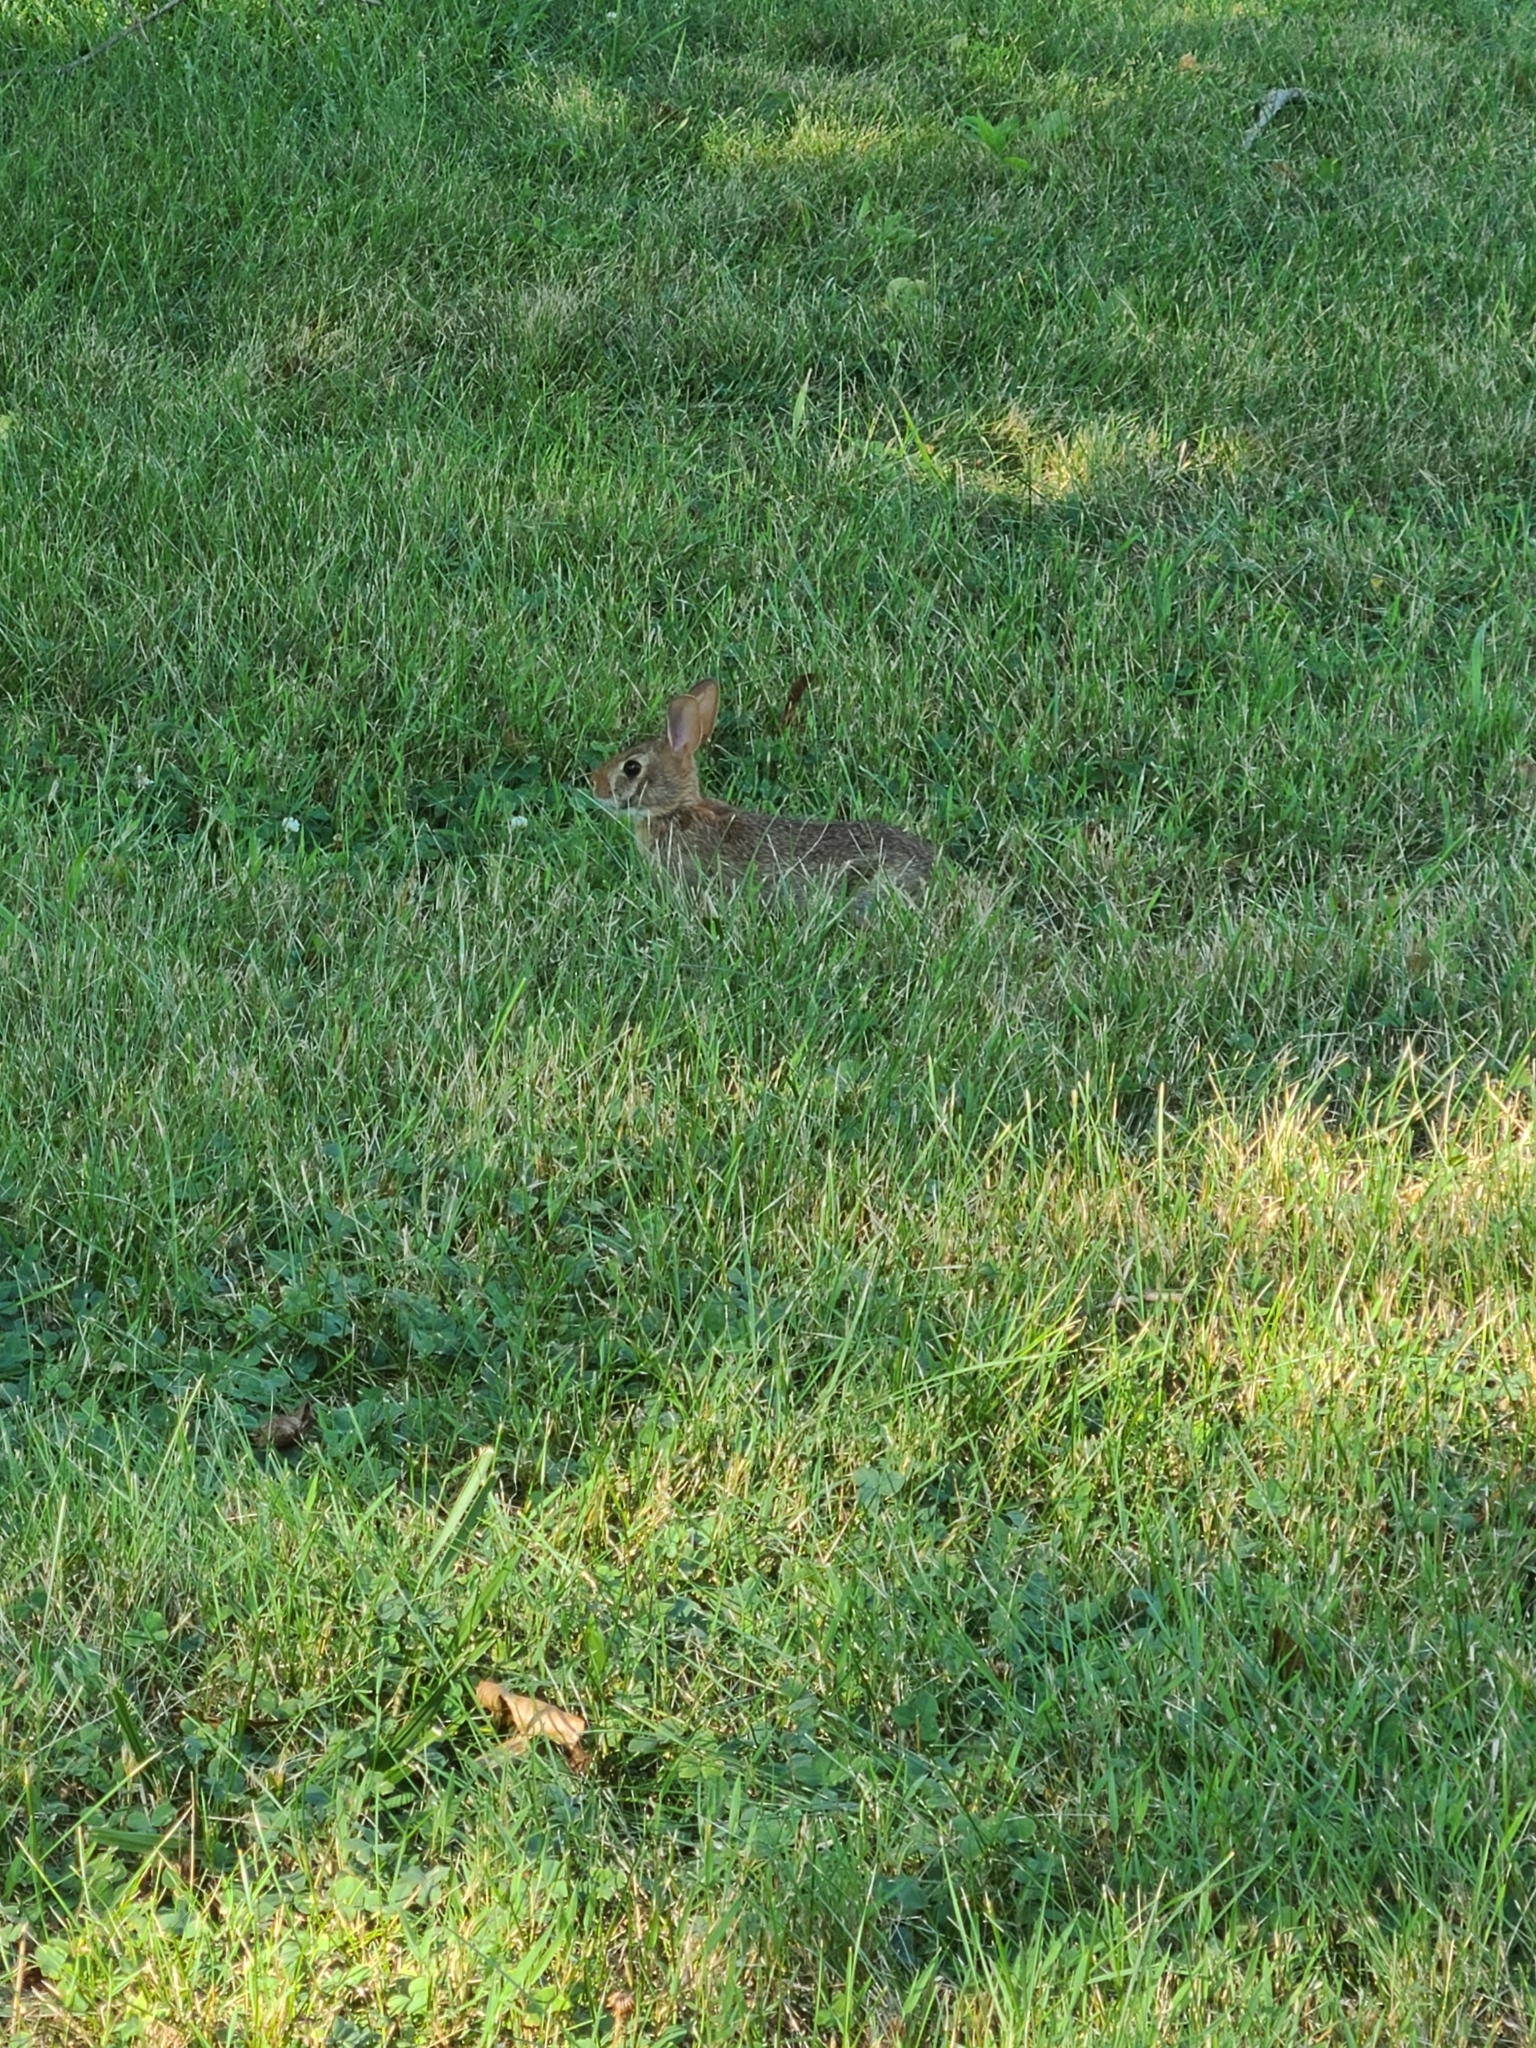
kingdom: Animalia
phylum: Chordata
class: Mammalia
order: Lagomorpha
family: Leporidae
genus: Sylvilagus
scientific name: Sylvilagus floridanus
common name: Eastern cottontail
